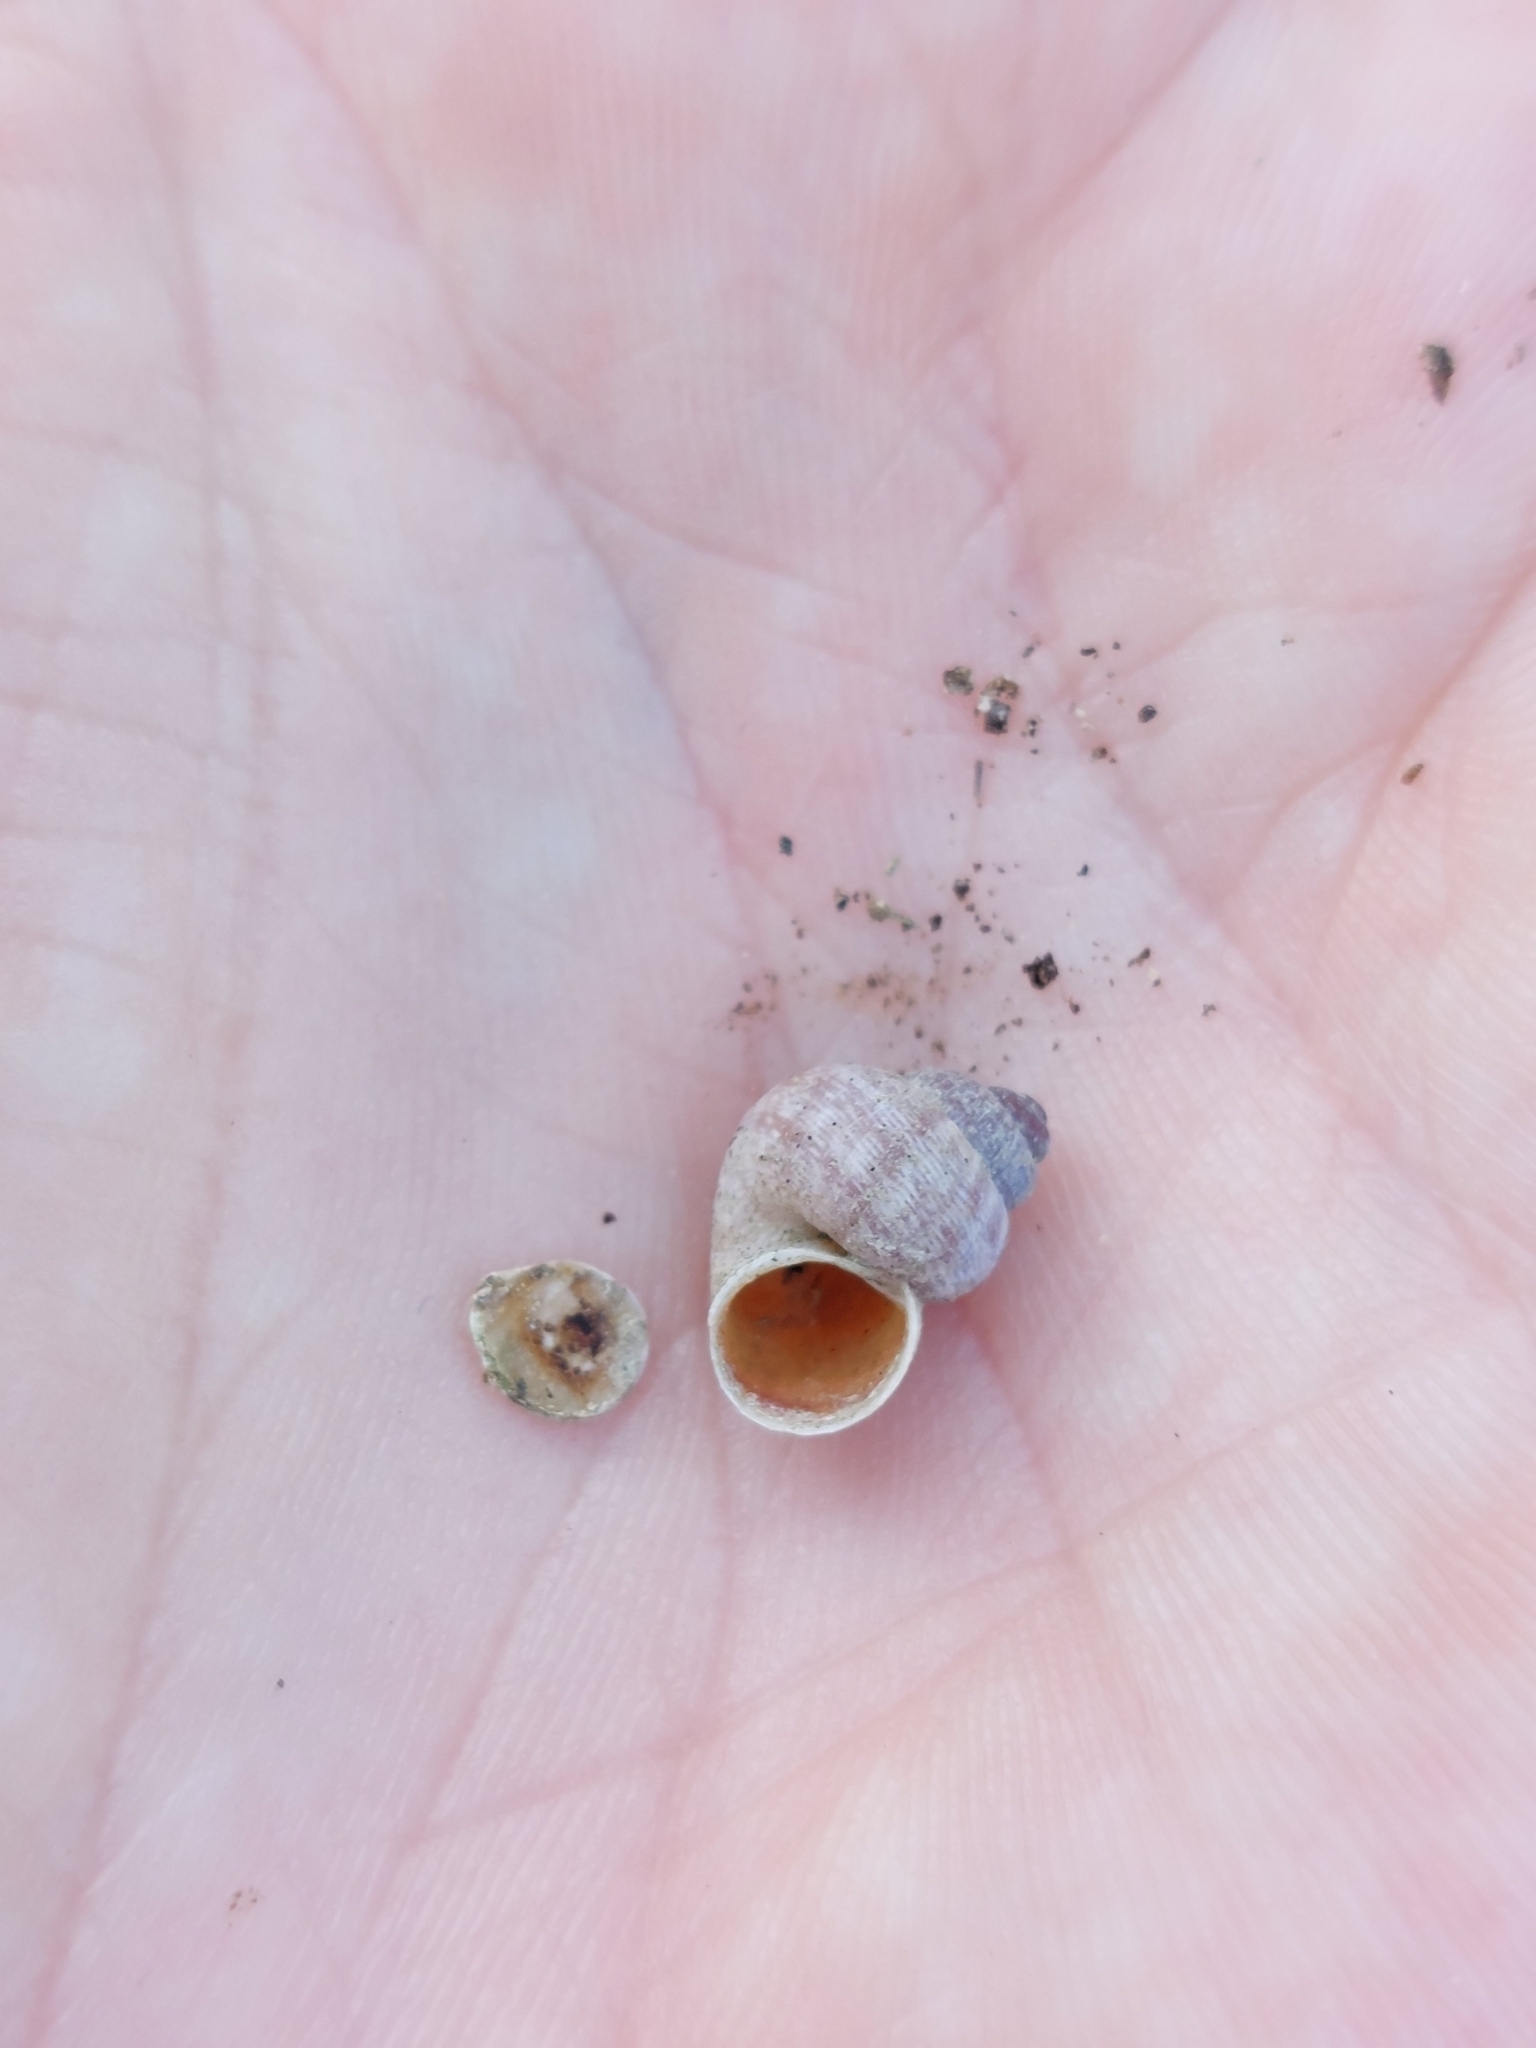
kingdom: Animalia
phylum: Mollusca
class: Gastropoda
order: Littorinimorpha
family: Pomatiidae
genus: Pomatias
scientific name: Pomatias elegans
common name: Red-mouthed snail
